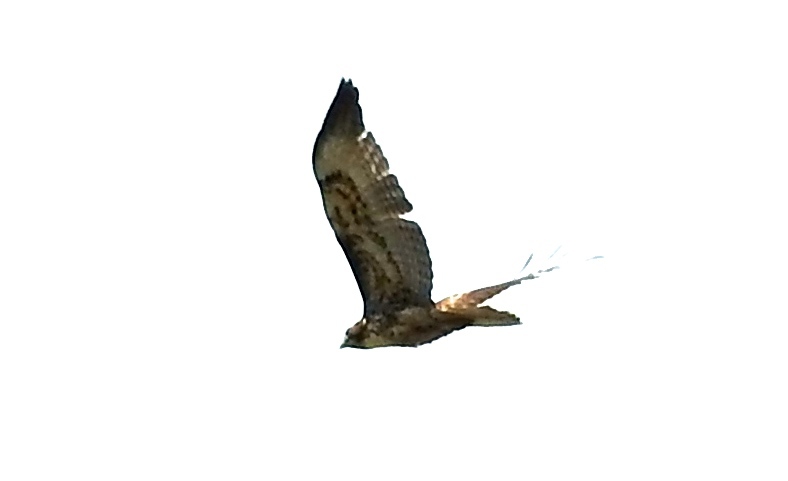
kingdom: Animalia
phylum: Chordata
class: Aves
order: Accipitriformes
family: Accipitridae
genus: Buteo
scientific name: Buteo jamaicensis
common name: Red-tailed hawk
